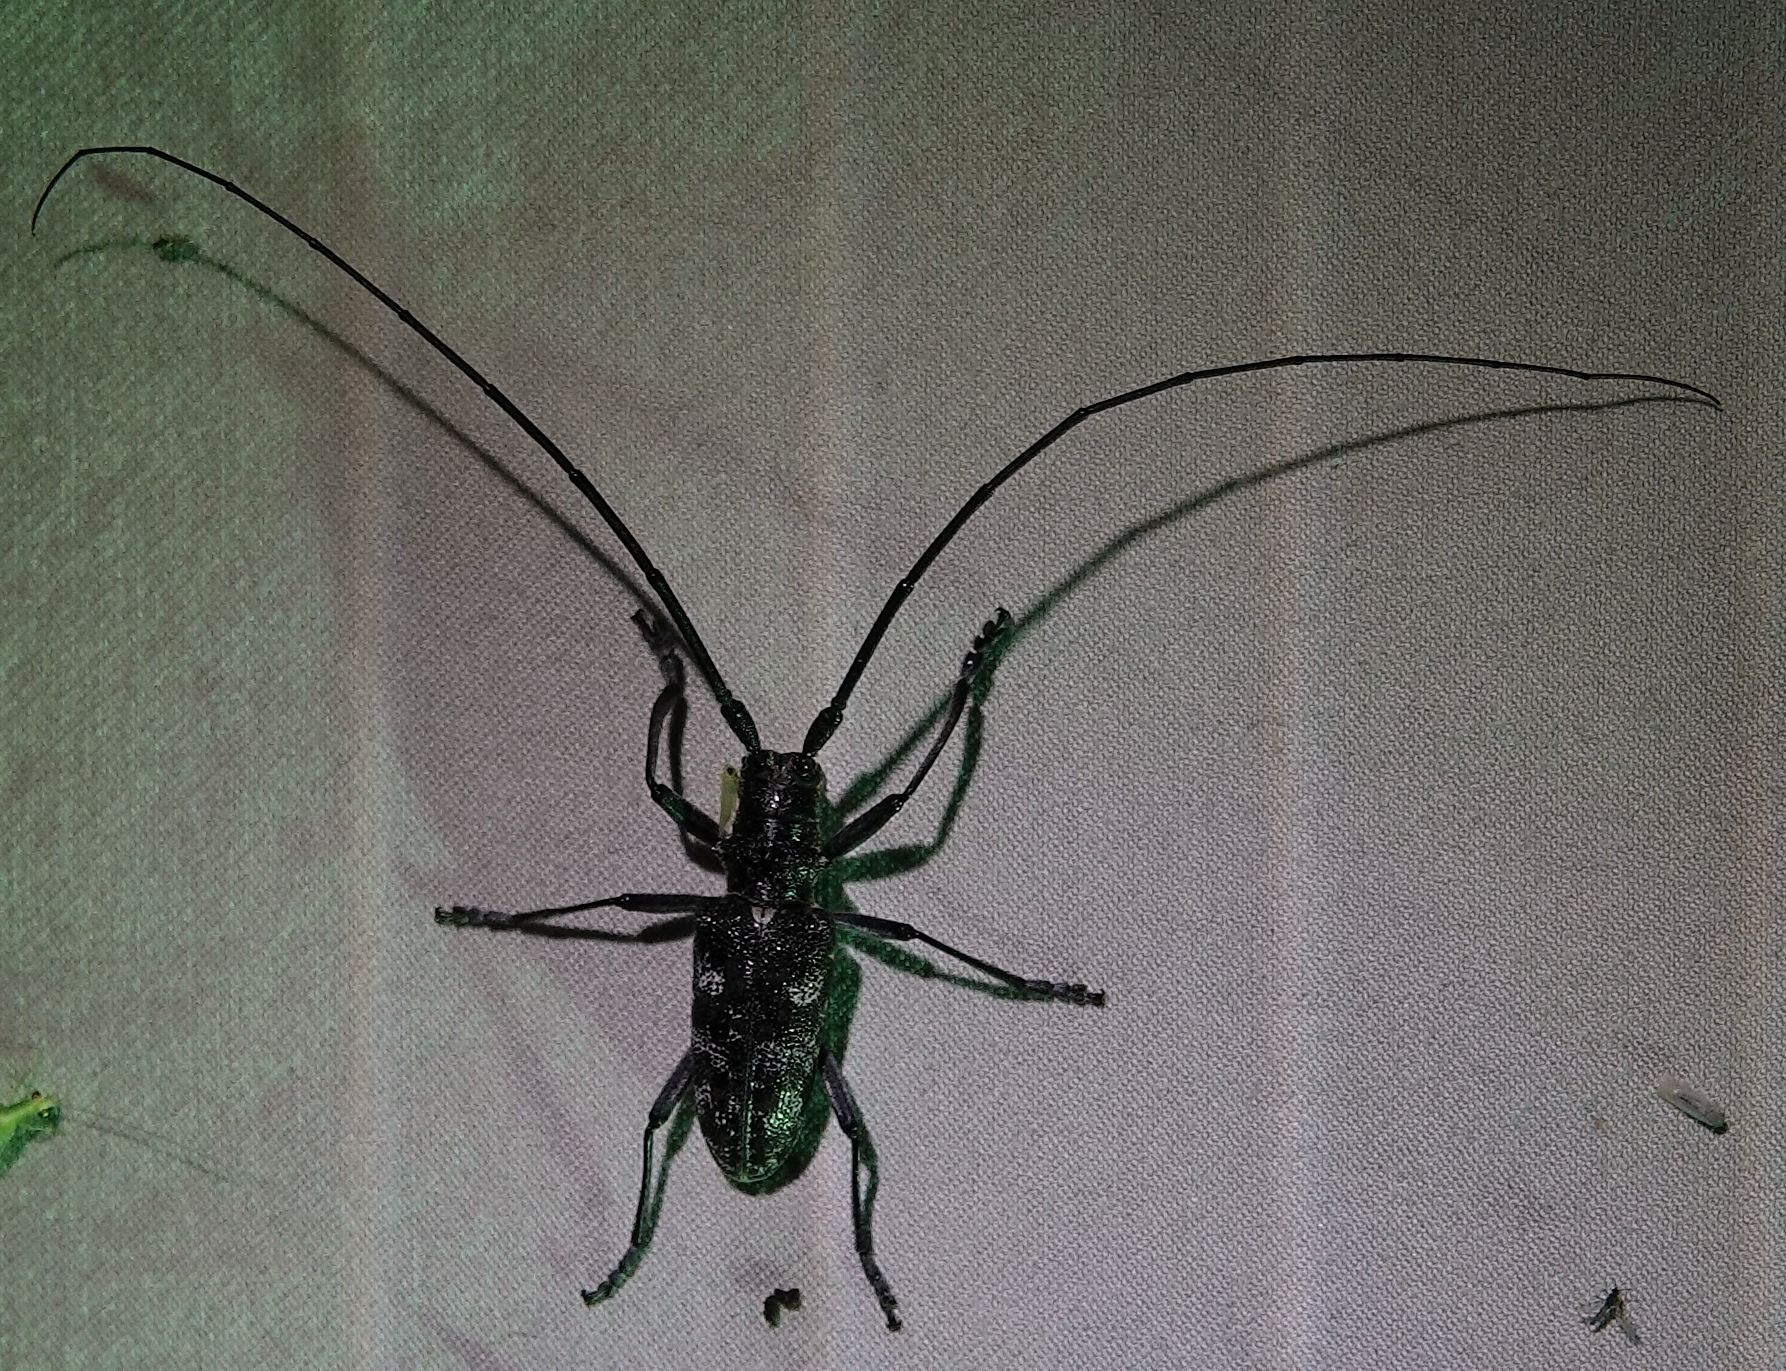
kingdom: Animalia
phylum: Arthropoda
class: Insecta
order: Coleoptera
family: Cerambycidae
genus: Monochamus
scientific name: Monochamus clamator
